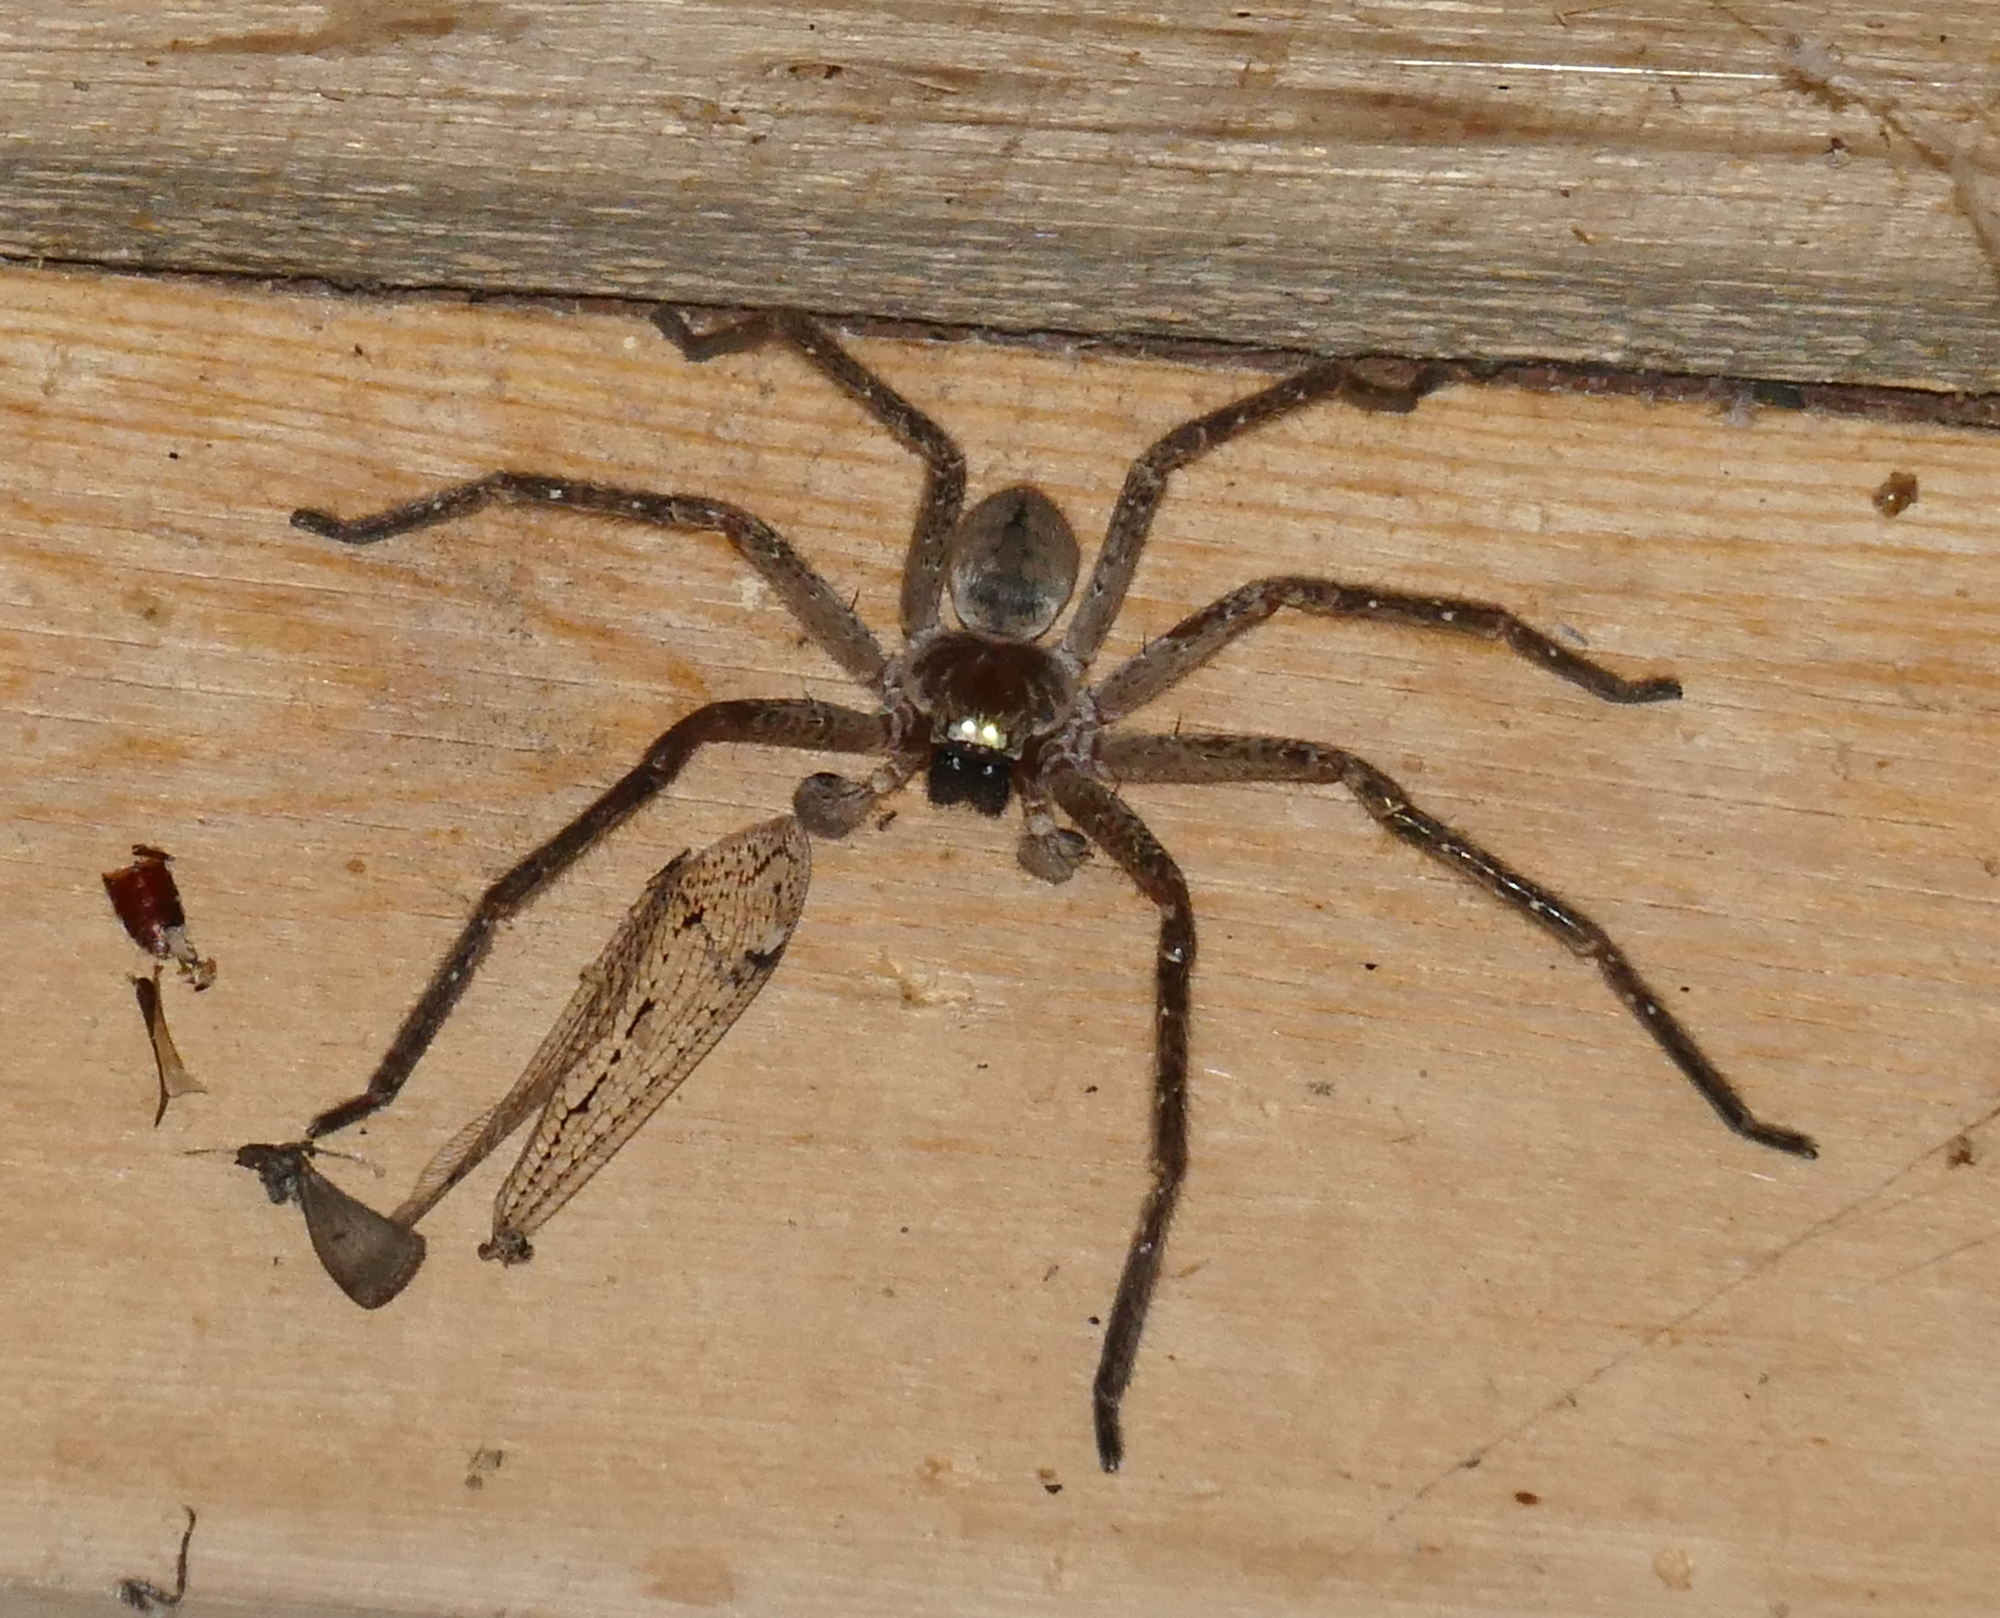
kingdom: Animalia
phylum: Arthropoda
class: Arachnida
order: Araneae
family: Sparassidae
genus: Olios
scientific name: Olios giganteus
